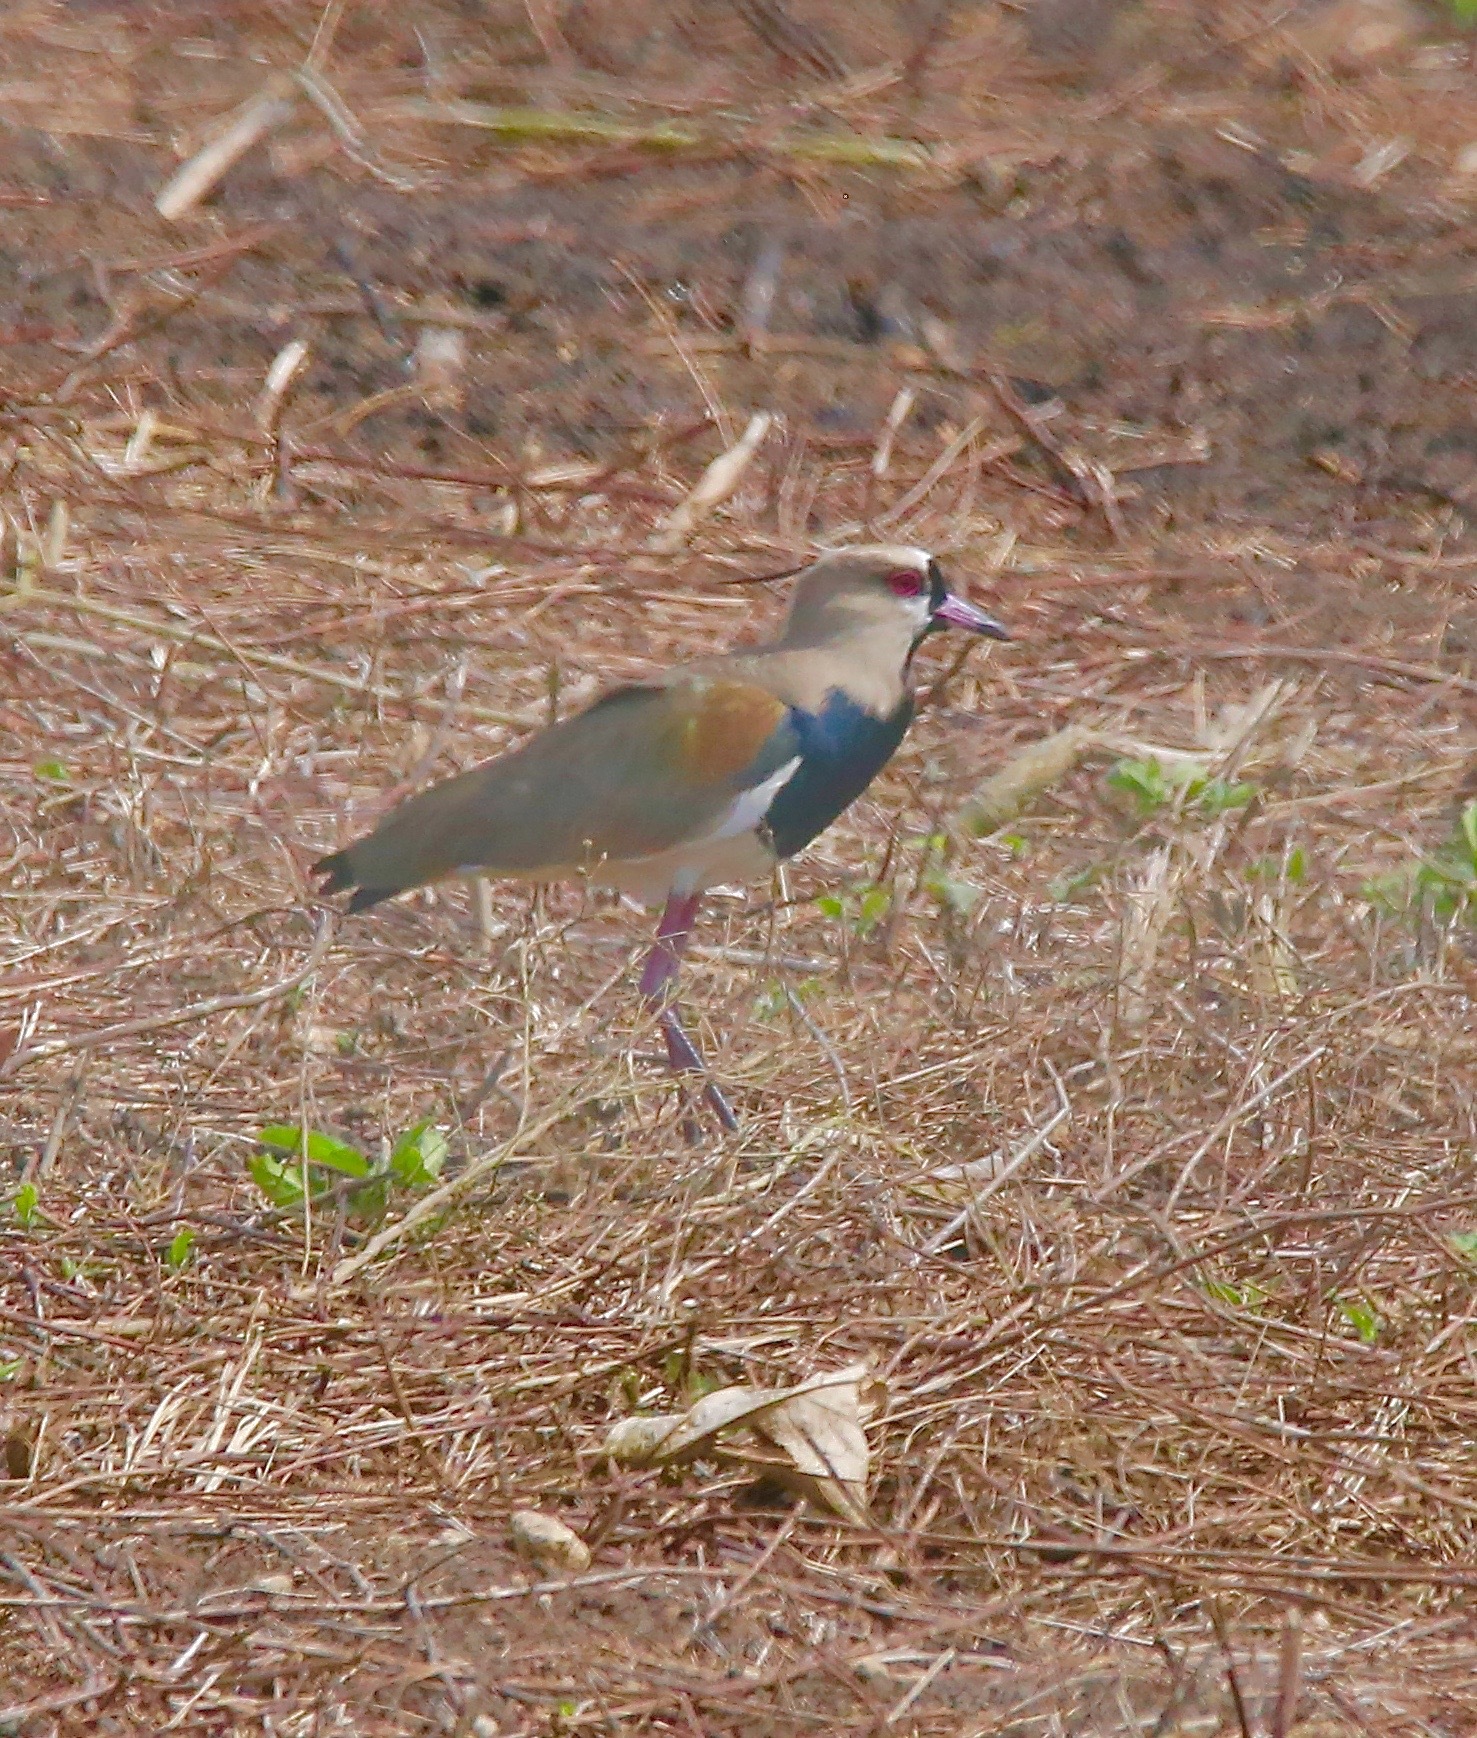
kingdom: Animalia
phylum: Chordata
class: Aves
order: Charadriiformes
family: Charadriidae
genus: Vanellus
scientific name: Vanellus chilensis
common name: Southern lapwing
